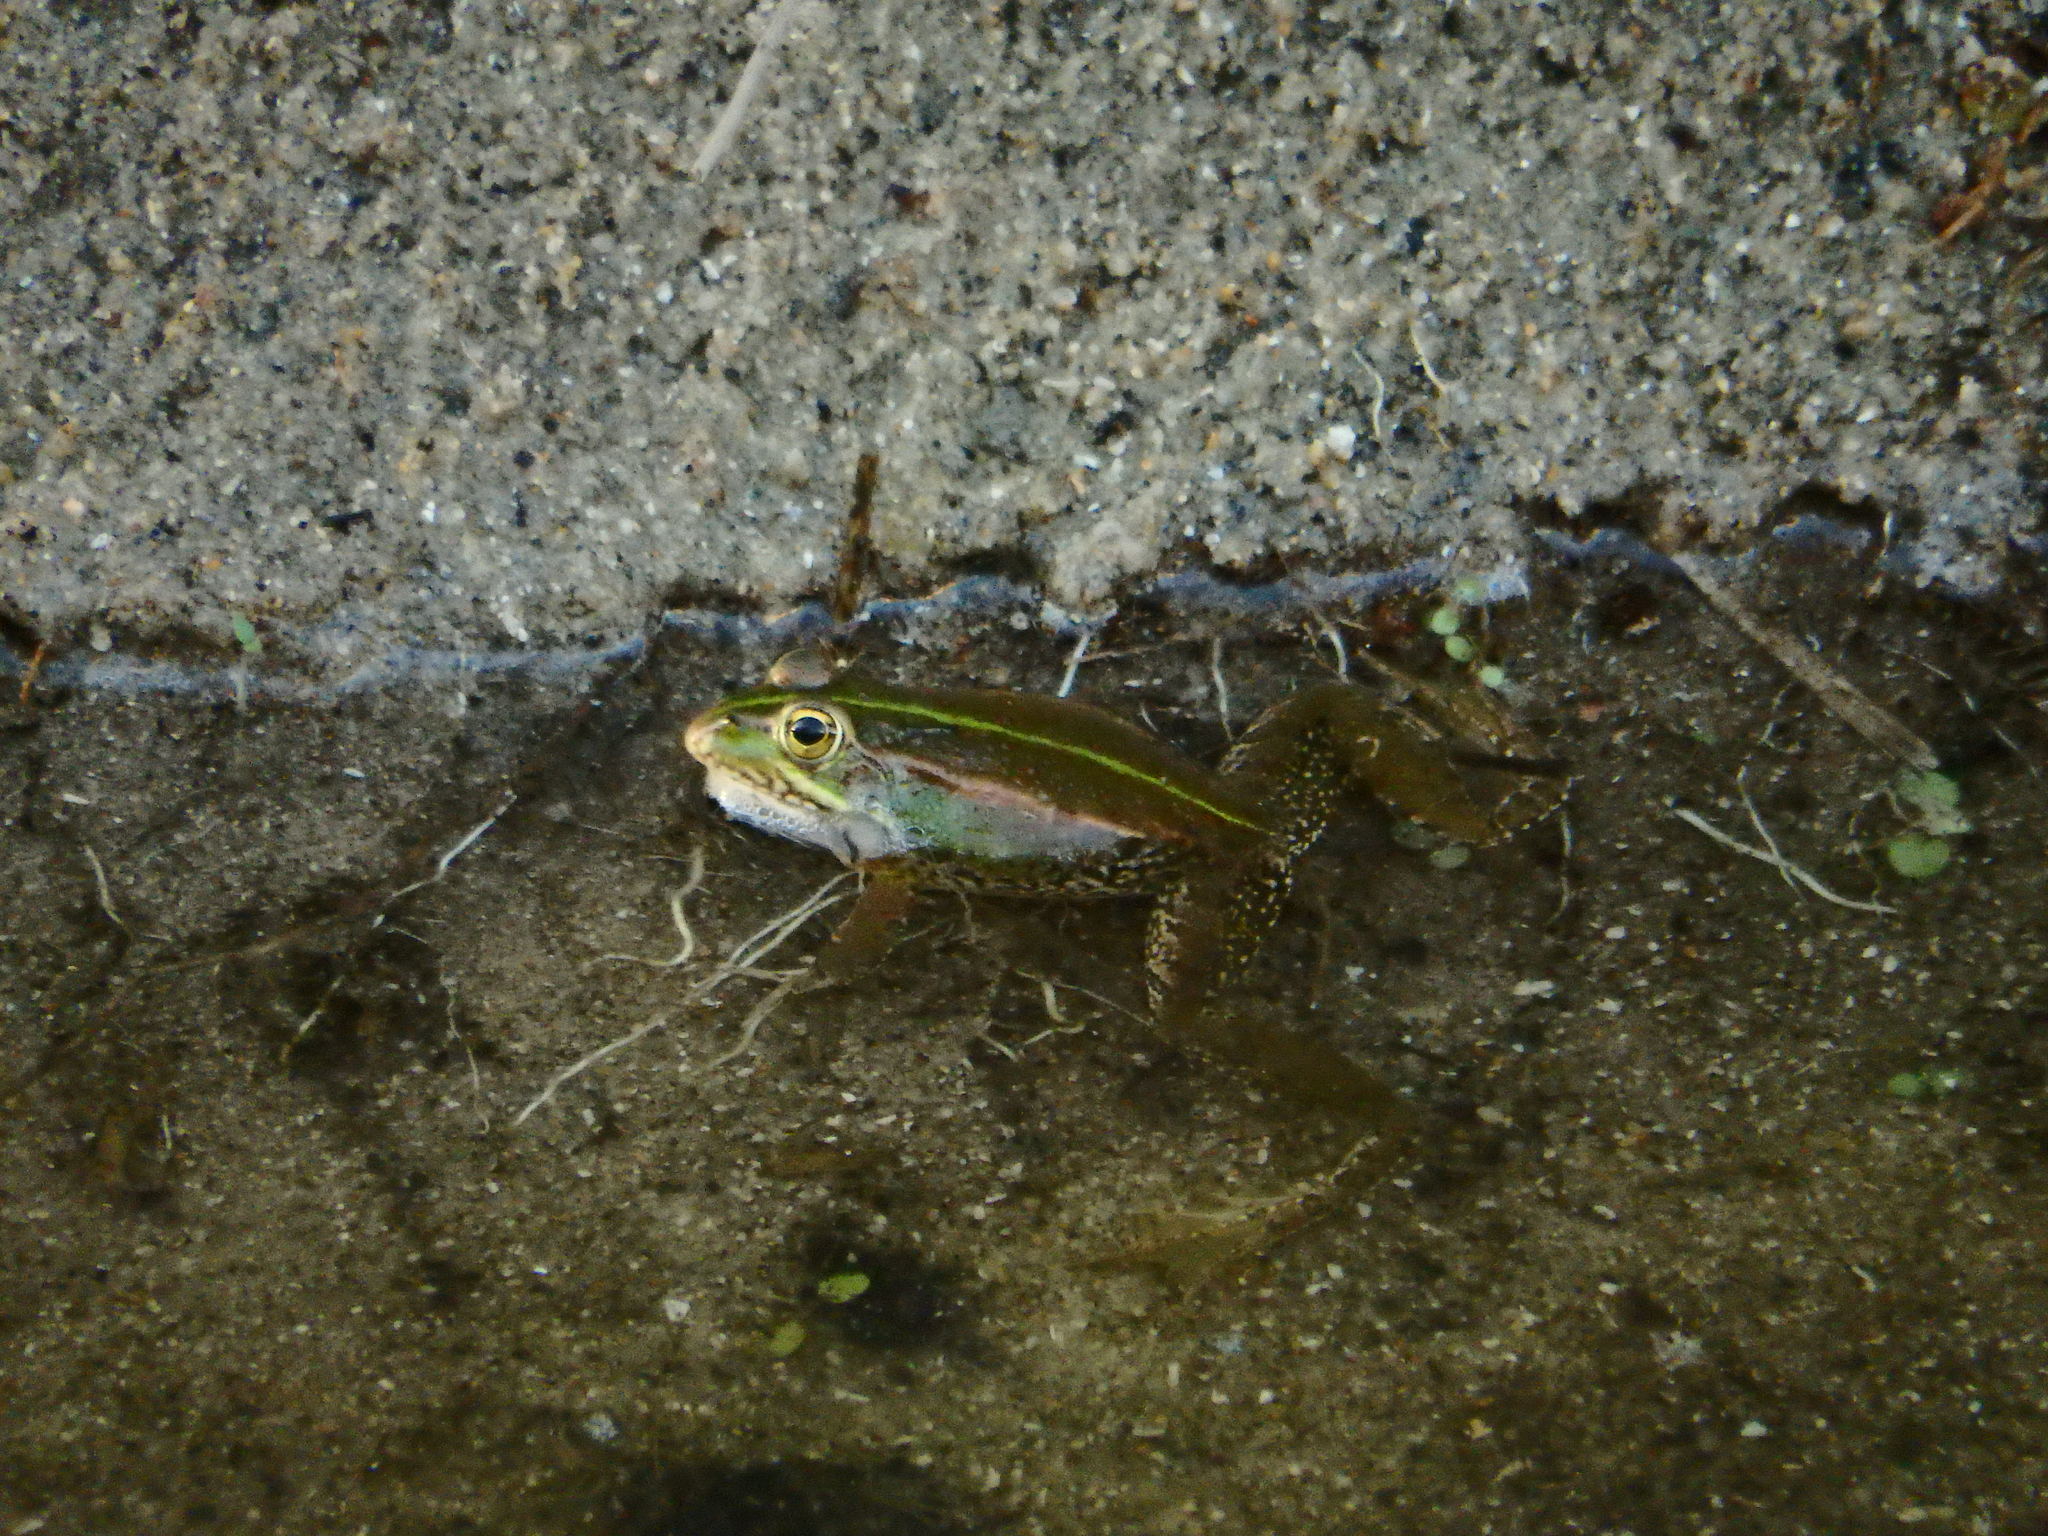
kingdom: Animalia
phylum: Chordata
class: Amphibia
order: Anura
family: Ranidae
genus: Pelophylax
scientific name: Pelophylax perezi
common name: Perez's frog
